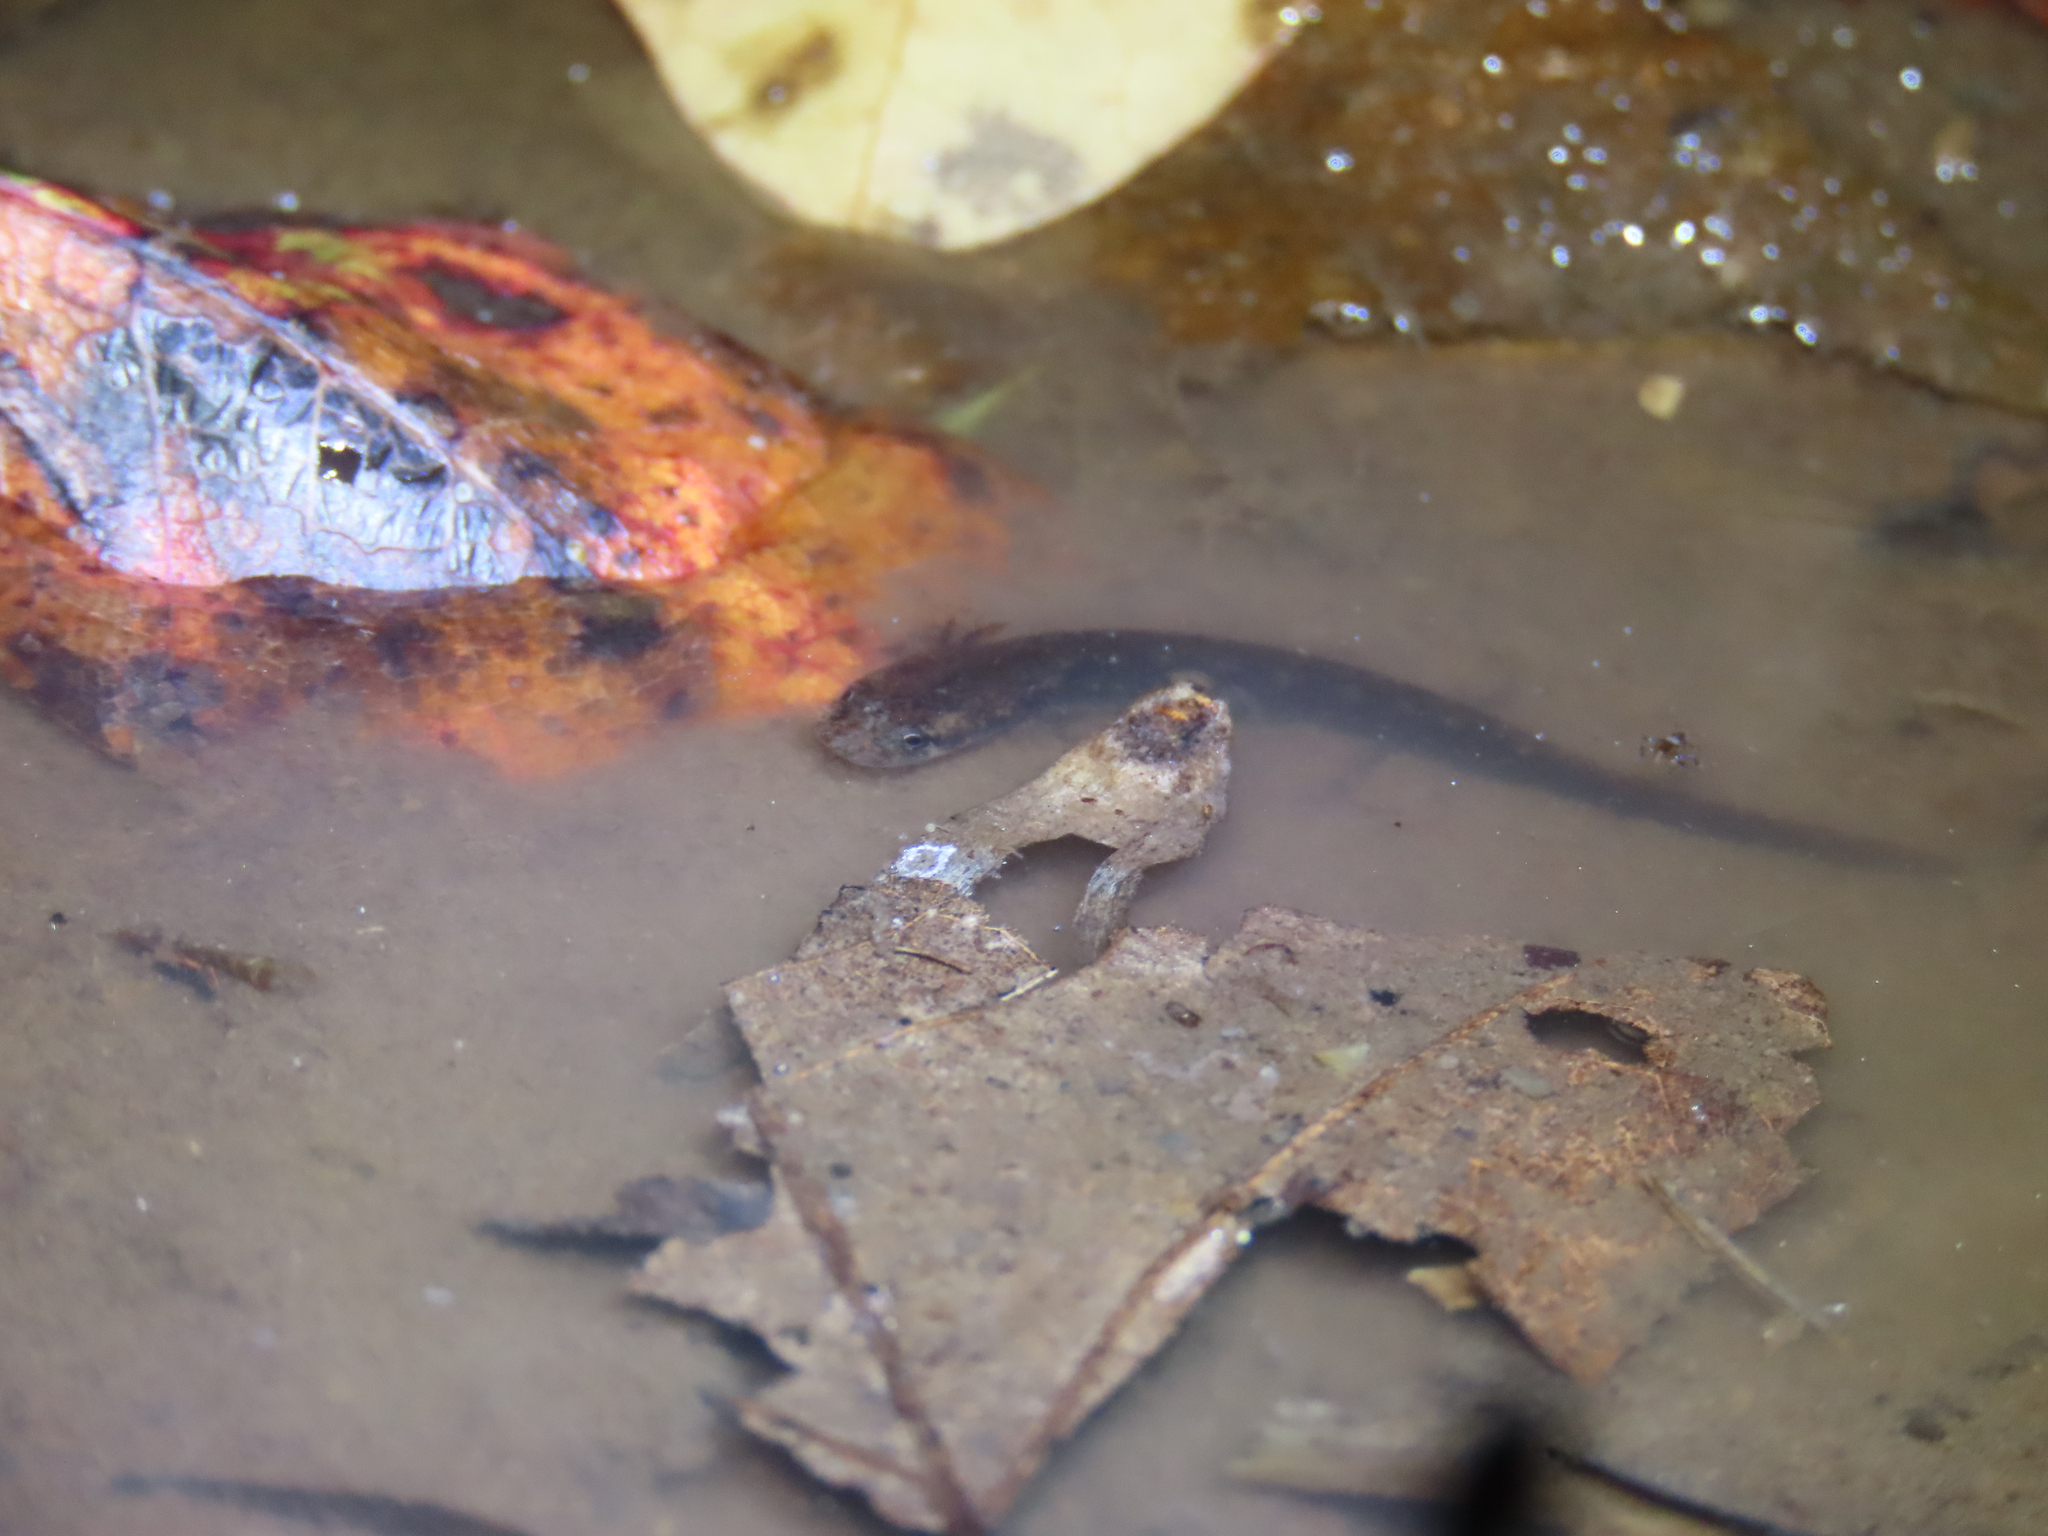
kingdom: Animalia
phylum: Chordata
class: Amphibia
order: Caudata
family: Plethodontidae
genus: Eurycea
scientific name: Eurycea cirrigera
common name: Southern two-lined salamander
